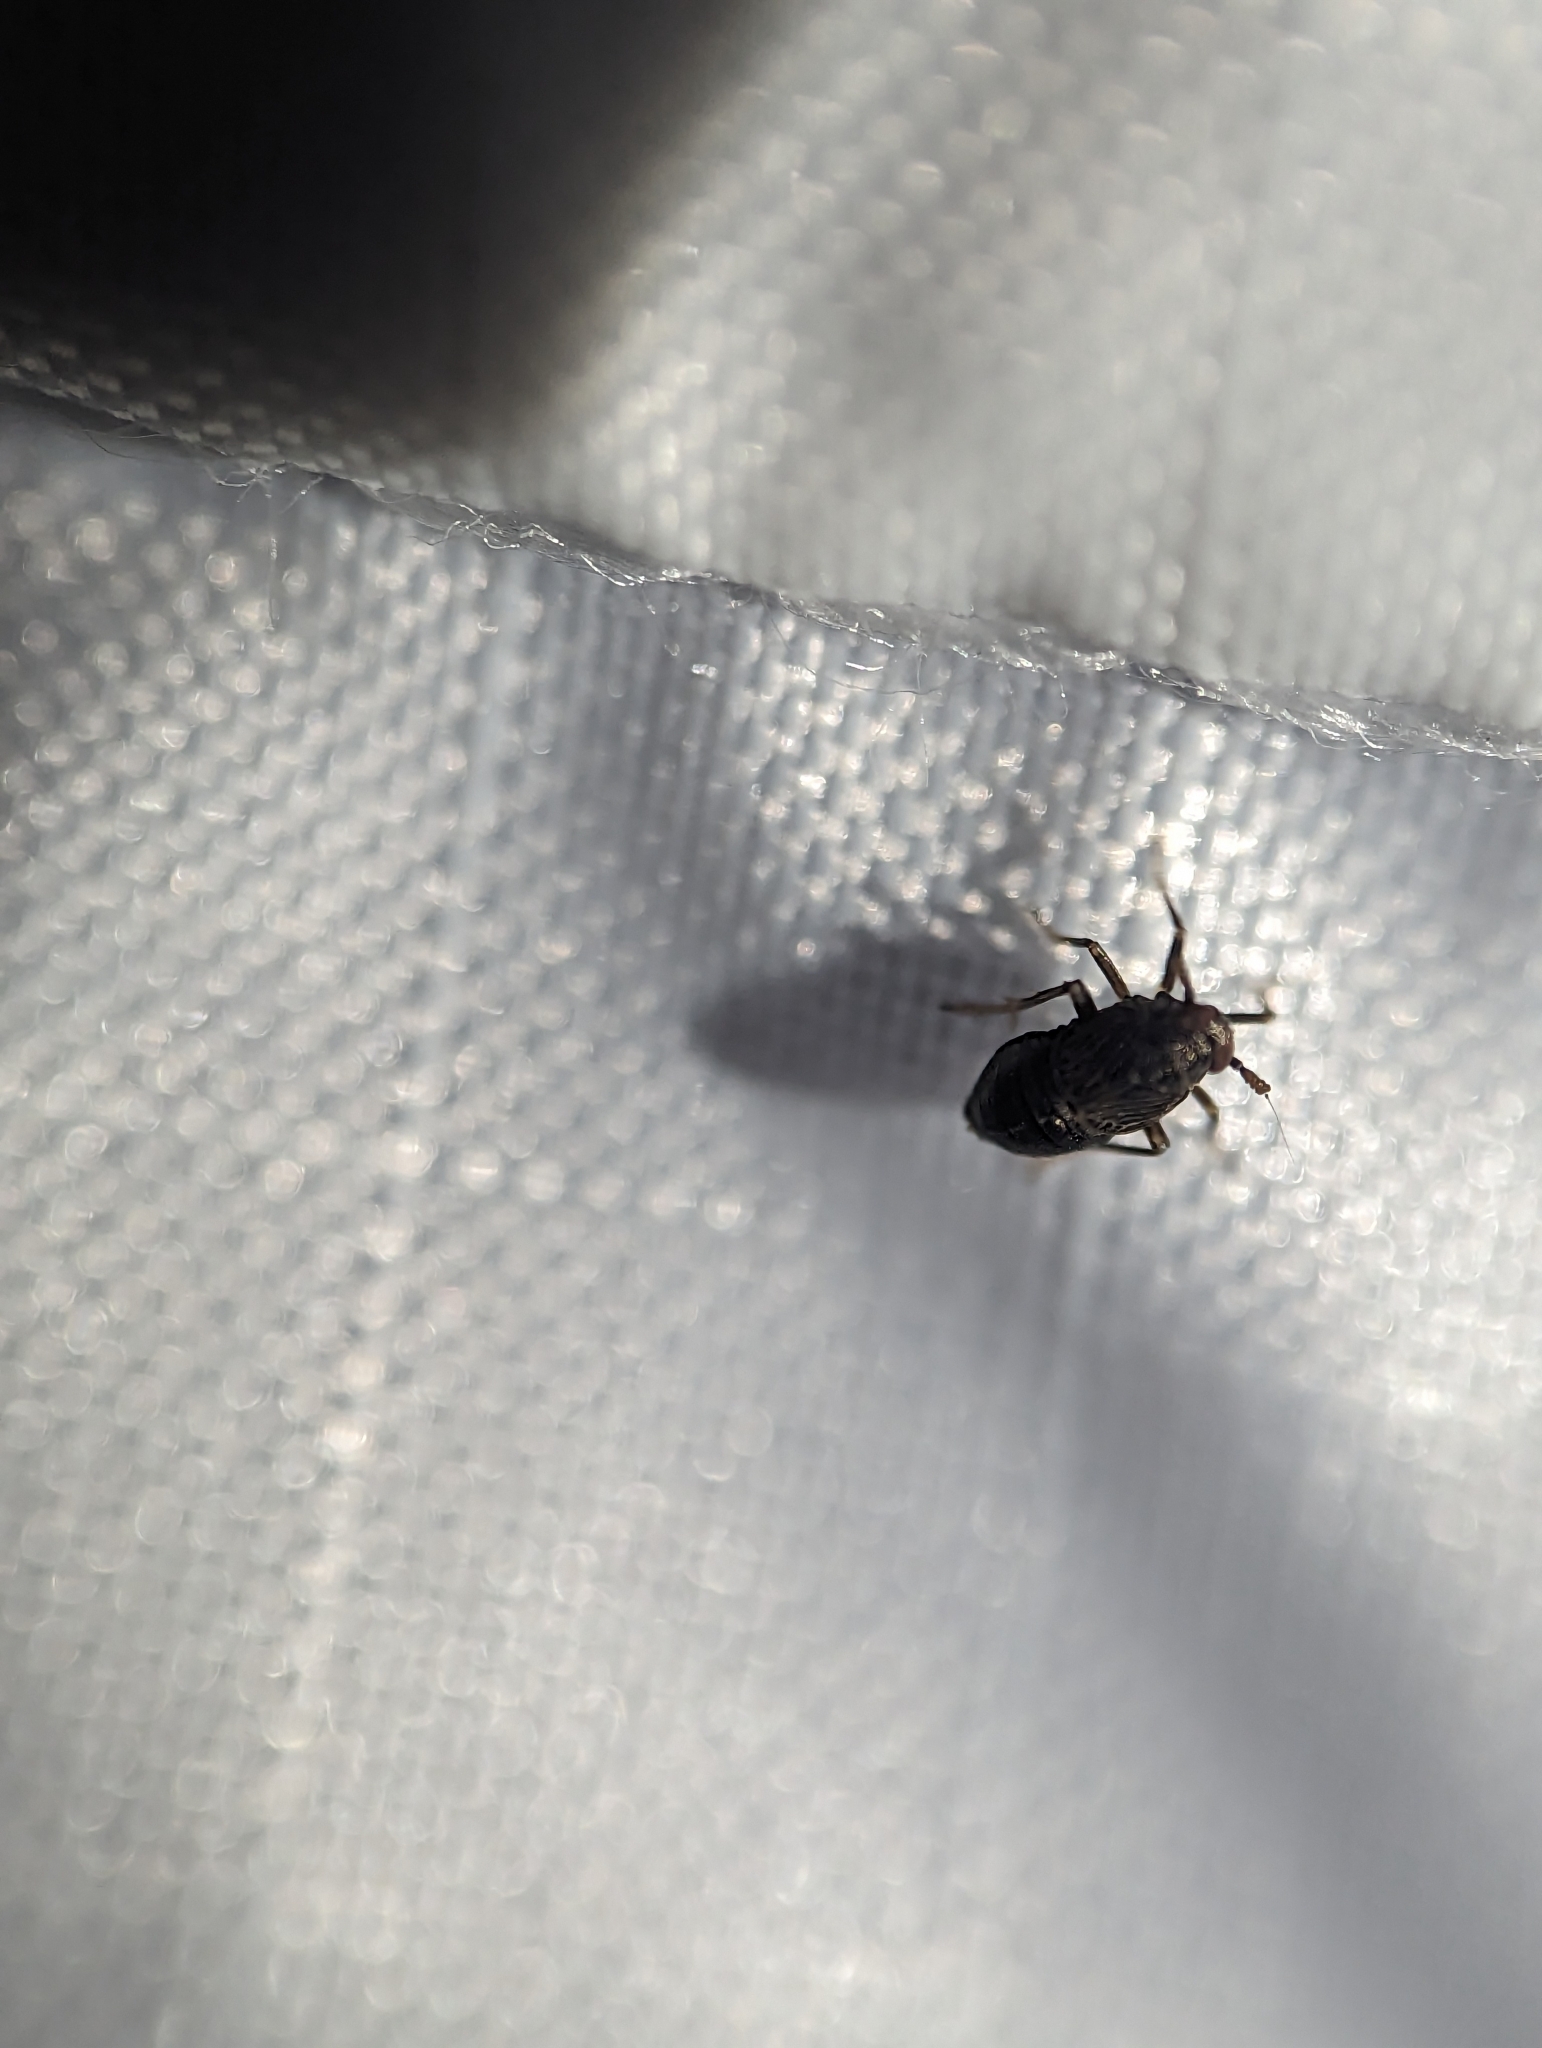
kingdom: Animalia
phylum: Arthropoda
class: Insecta
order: Hemiptera
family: Delphacidae
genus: Pissonotus
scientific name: Pissonotus brunneus
